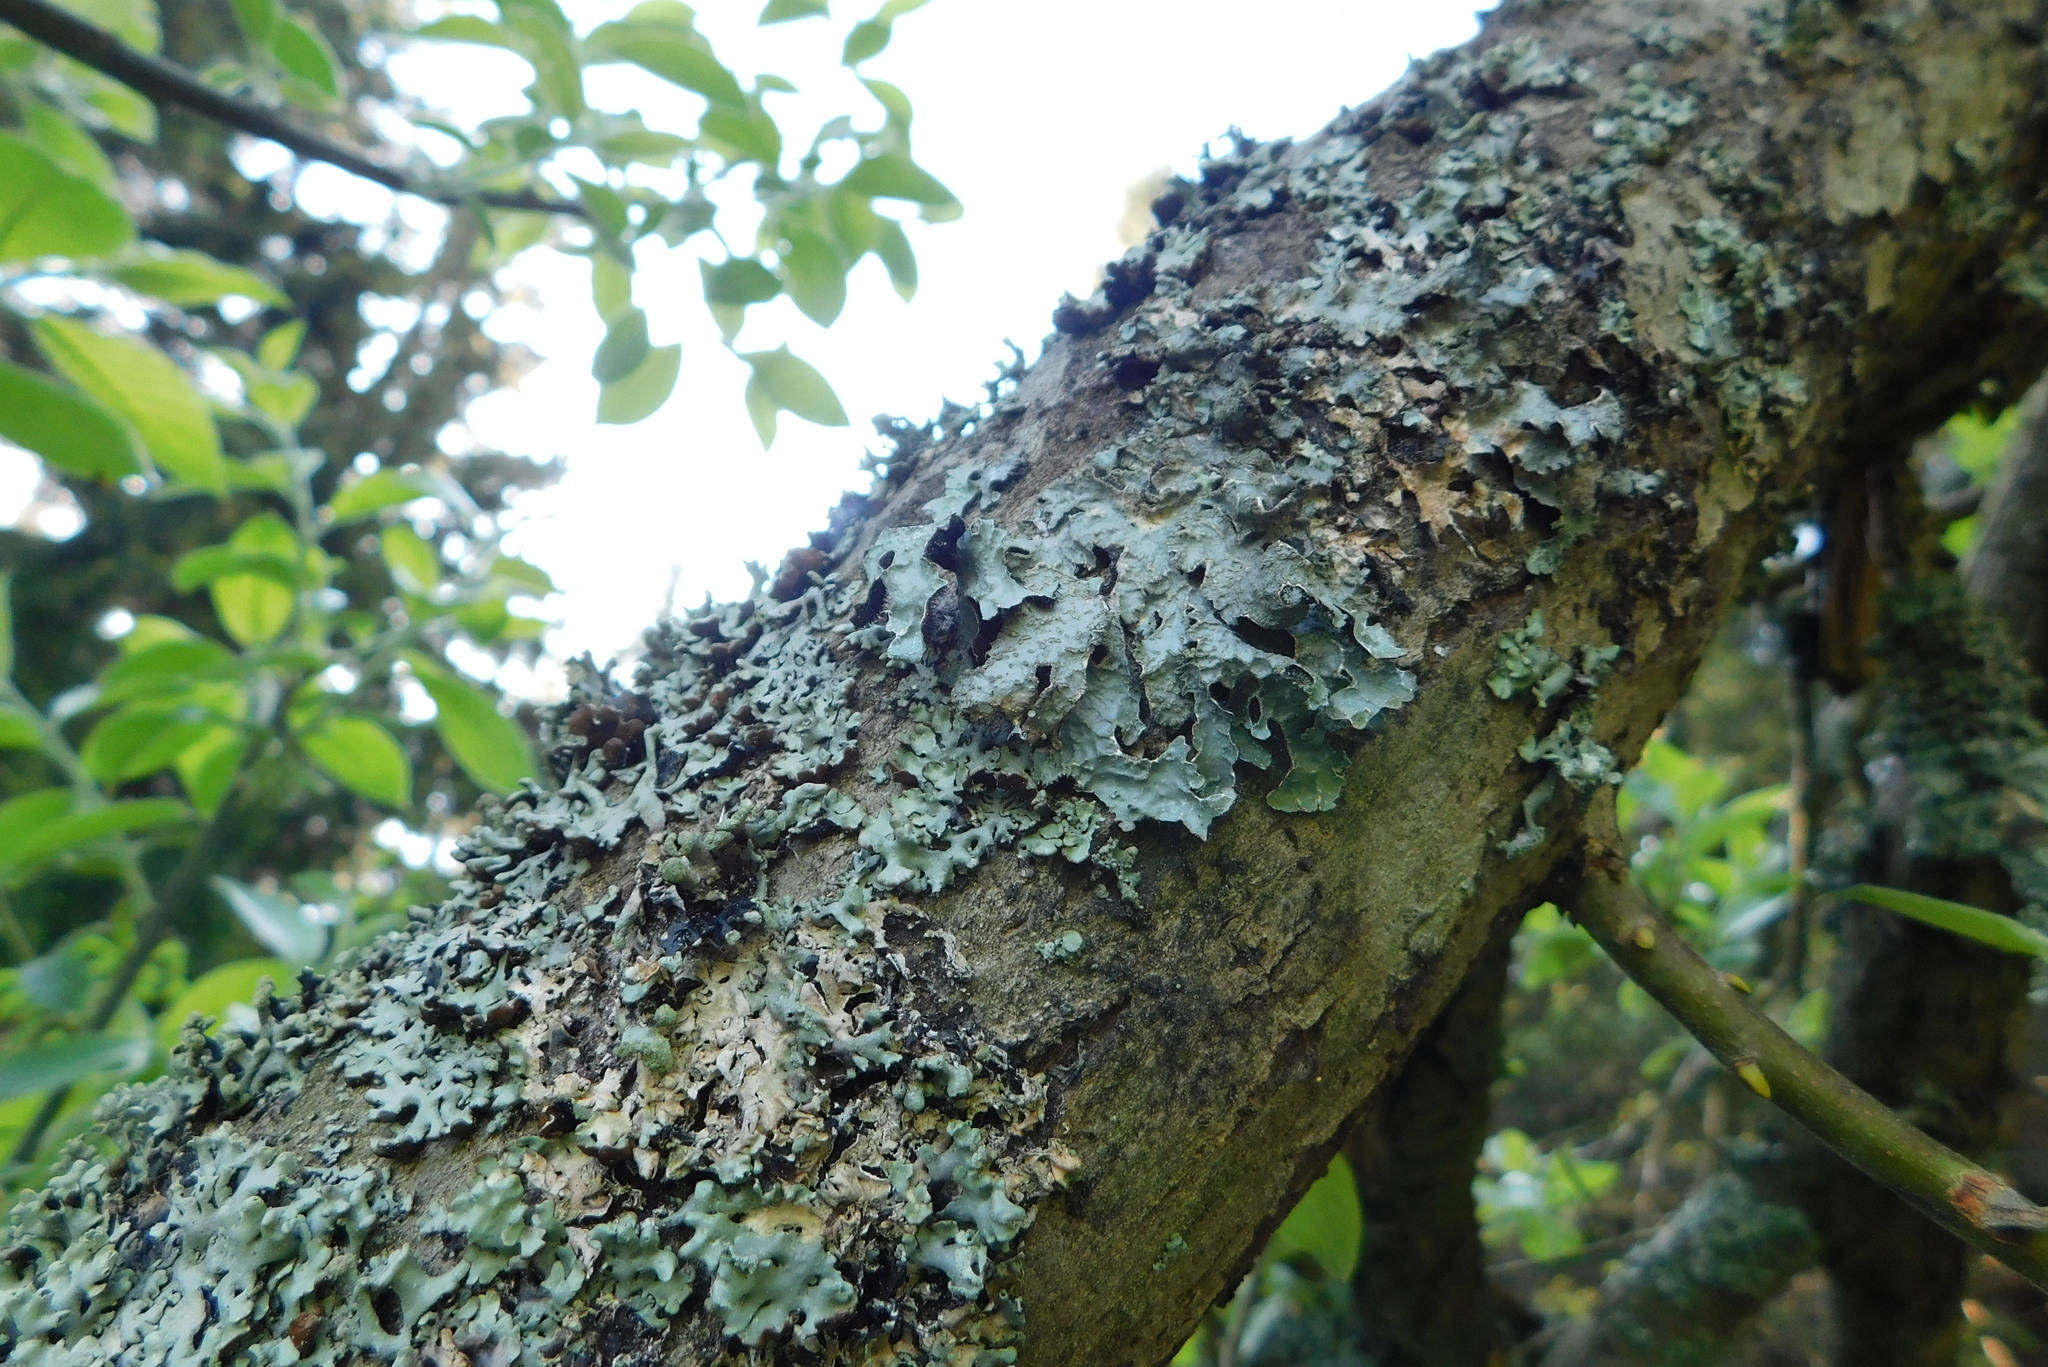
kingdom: Fungi
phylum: Ascomycota
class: Lecanoromycetes
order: Lecanorales
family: Parmeliaceae
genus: Parmelia
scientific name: Parmelia sulcata
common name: Netted shield lichen
